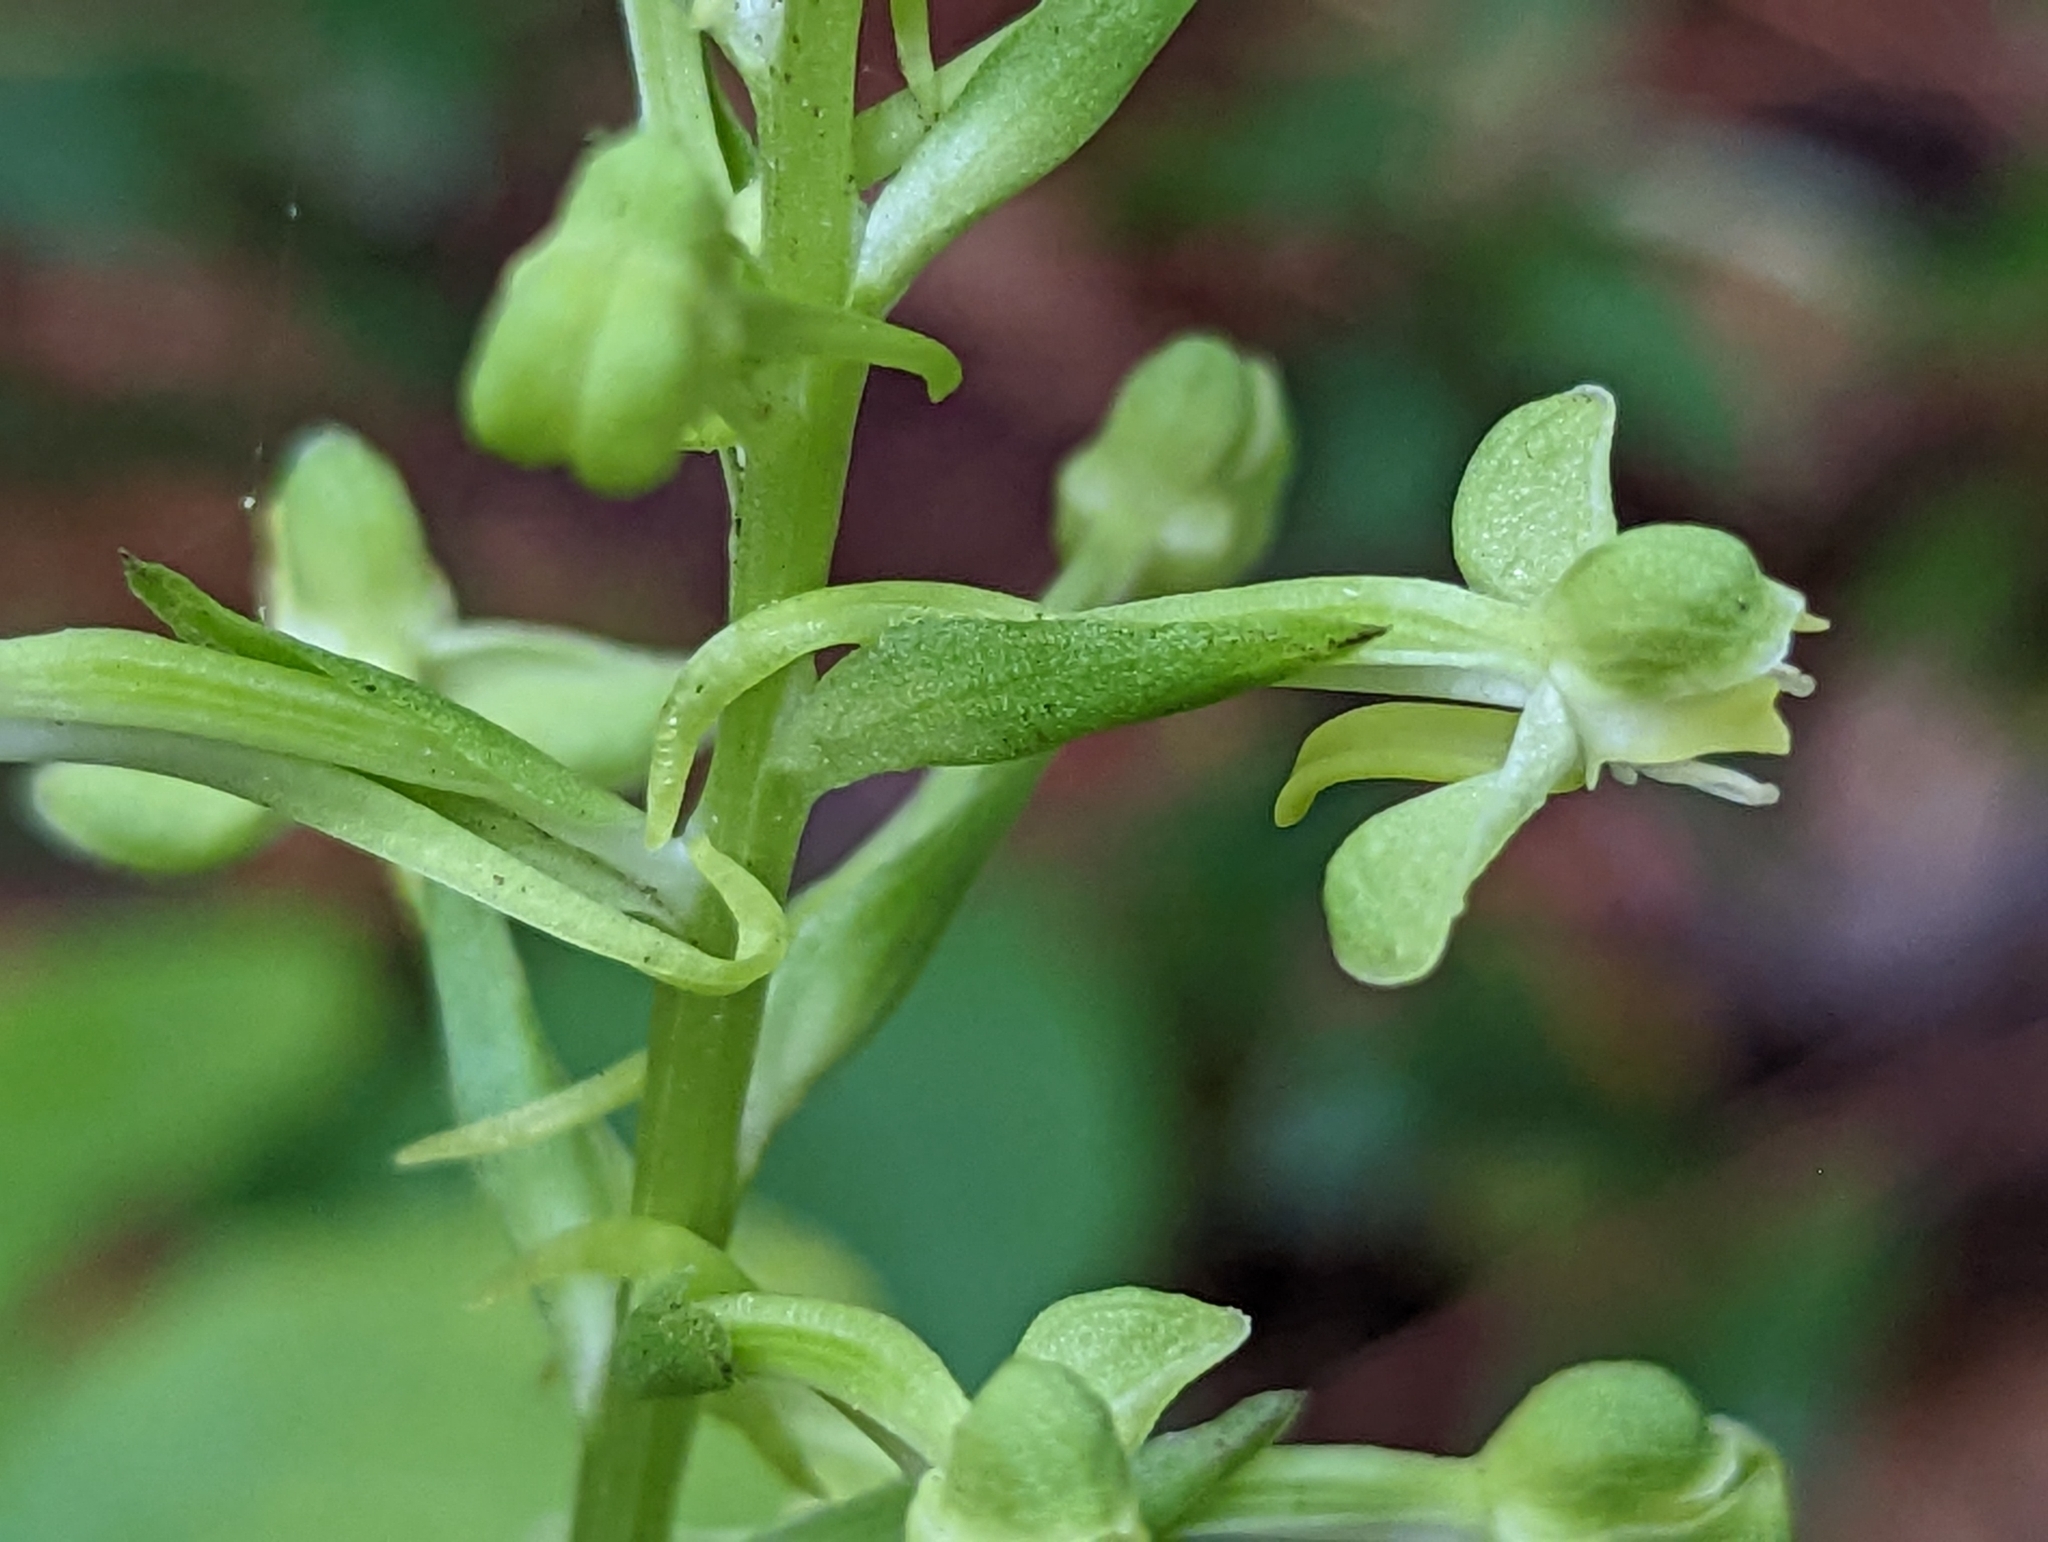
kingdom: Plantae
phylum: Tracheophyta
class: Liliopsida
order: Asparagales
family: Orchidaceae
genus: Habenaria
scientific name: Habenaria floribunda
